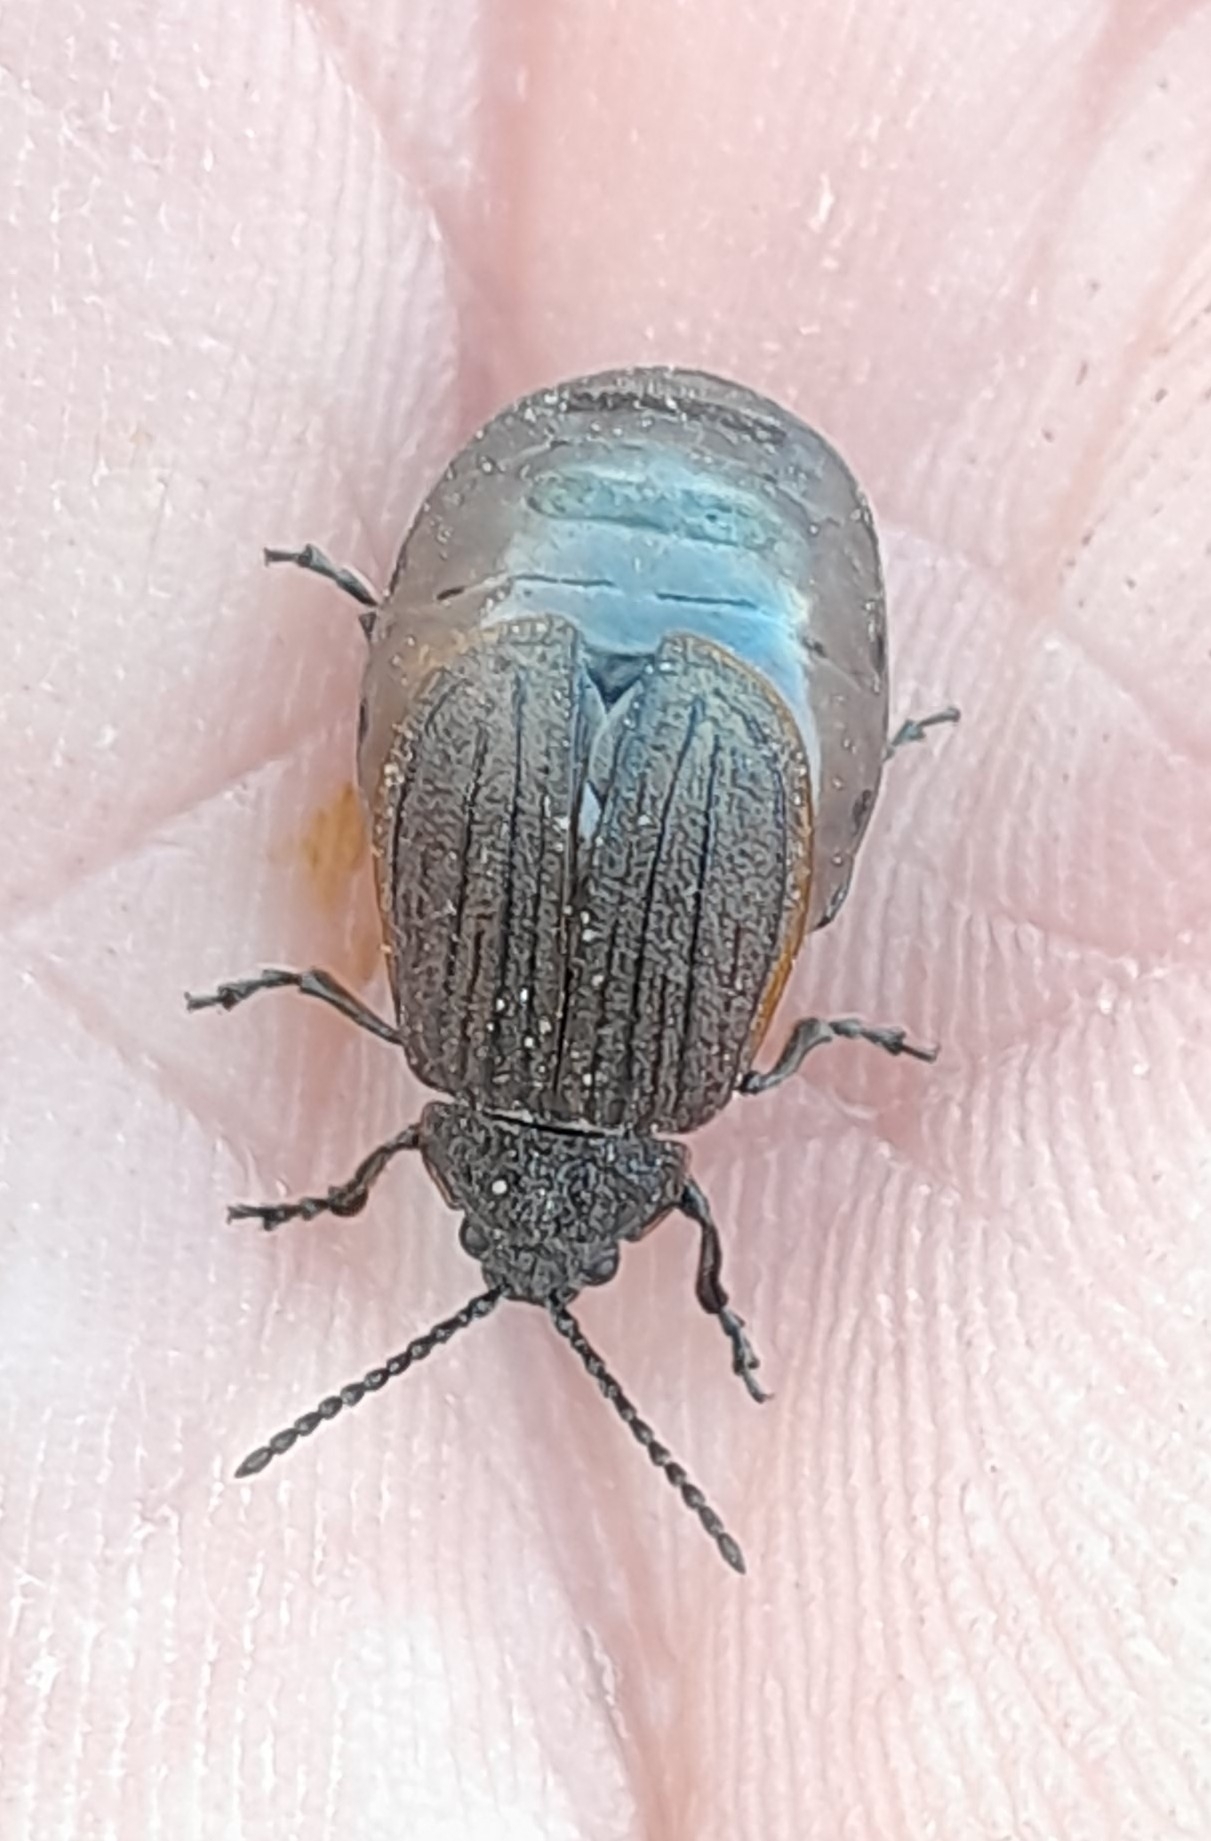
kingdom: Animalia
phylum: Arthropoda
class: Insecta
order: Coleoptera
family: Chrysomelidae
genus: Galeruca
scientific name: Galeruca pomonae
